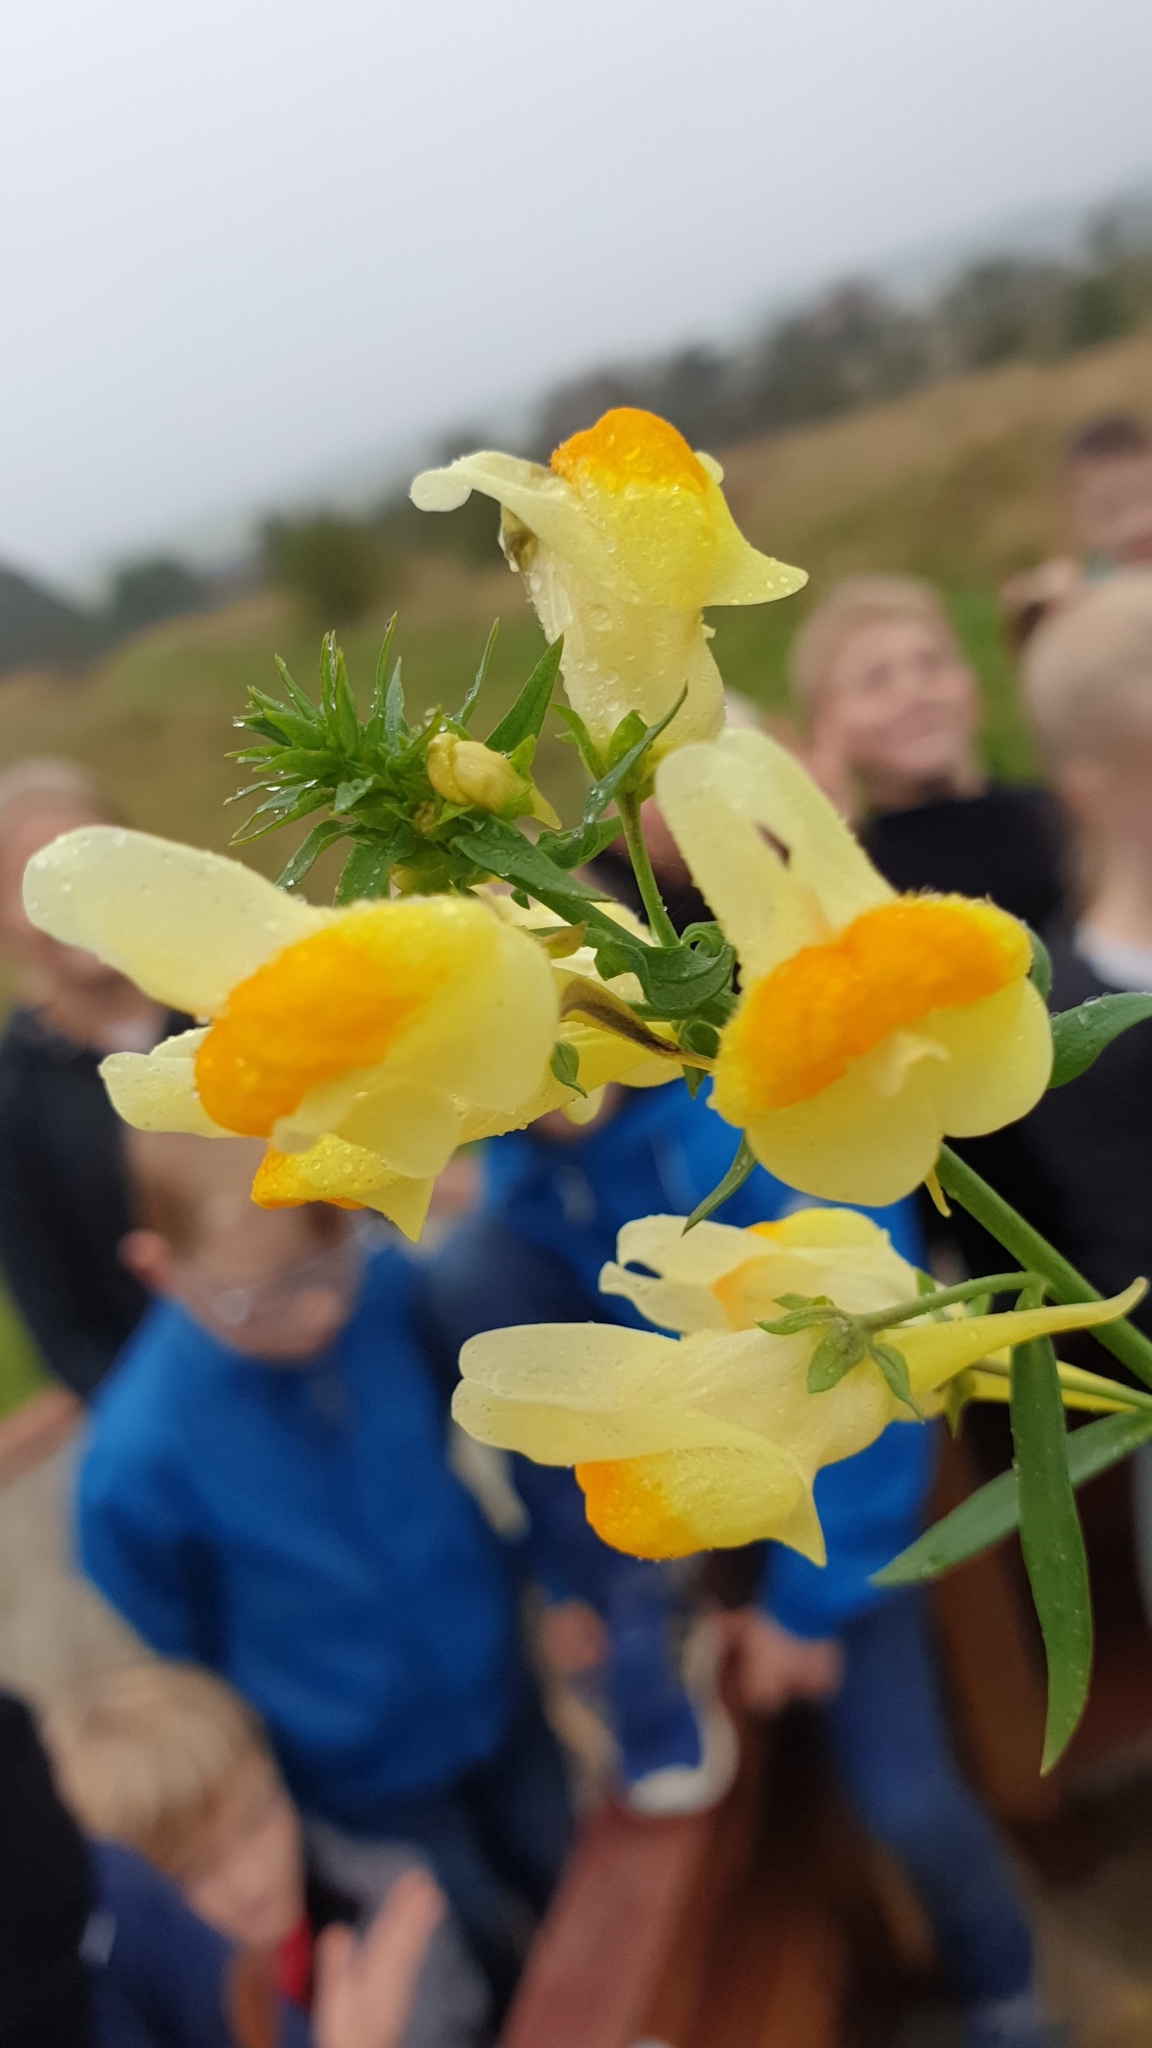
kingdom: Plantae
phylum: Tracheophyta
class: Magnoliopsida
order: Lamiales
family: Plantaginaceae
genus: Linaria
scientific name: Linaria vulgaris
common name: Butter and eggs
